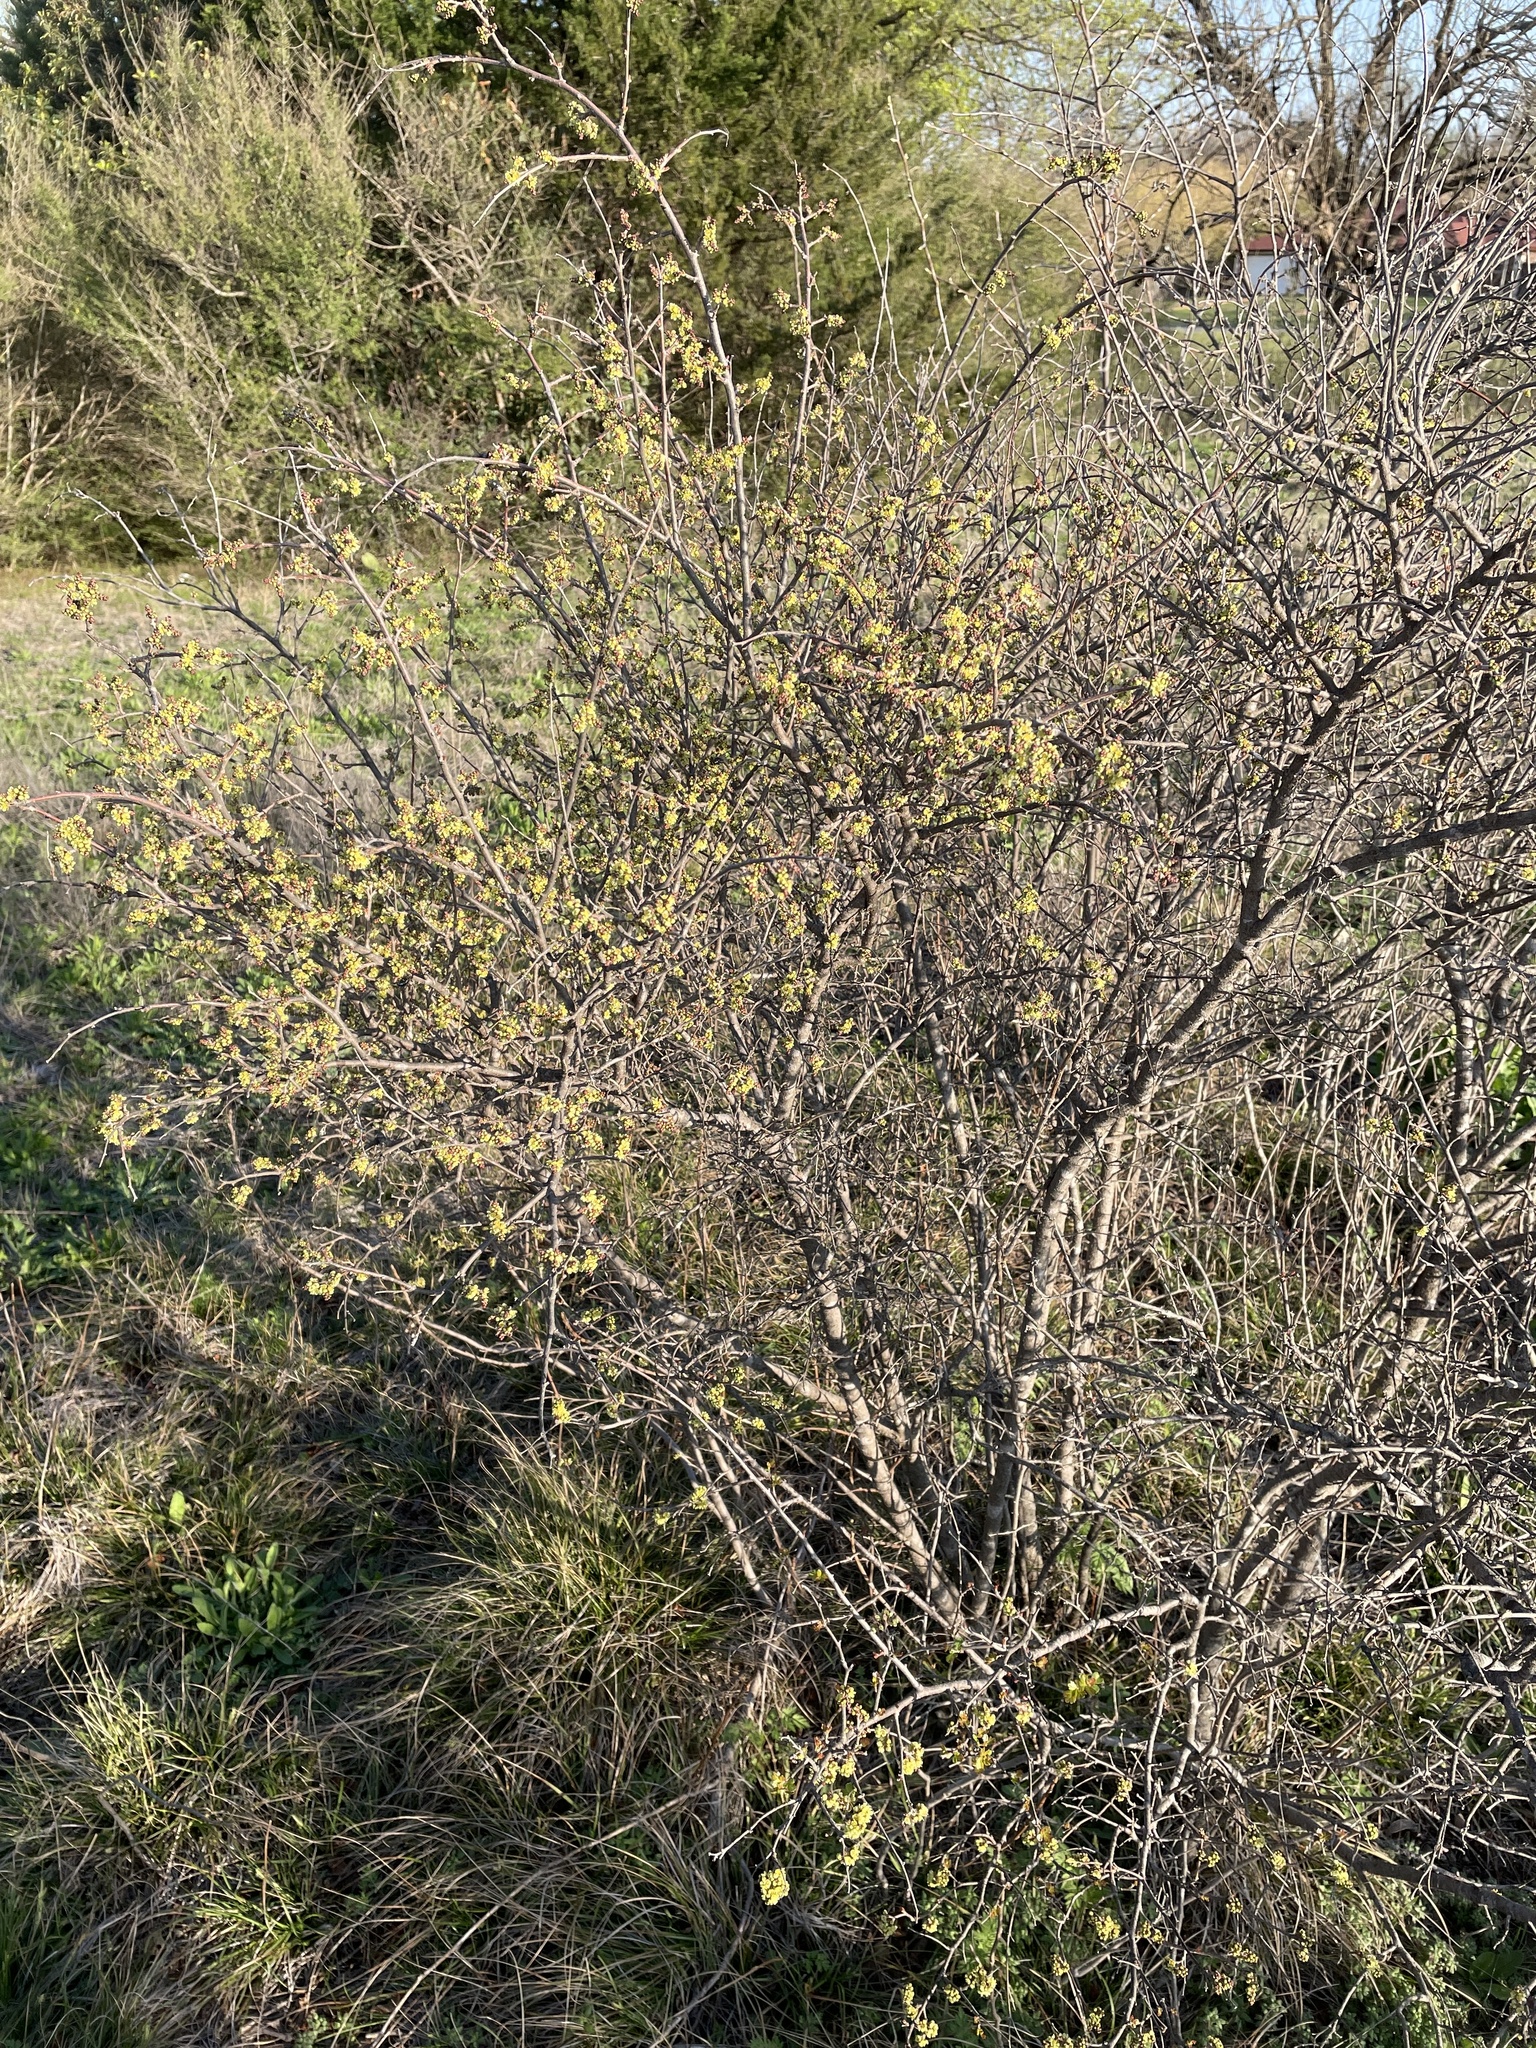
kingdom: Plantae
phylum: Tracheophyta
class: Magnoliopsida
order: Sapindales
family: Anacardiaceae
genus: Rhus
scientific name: Rhus aromatica
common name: Aromatic sumac
